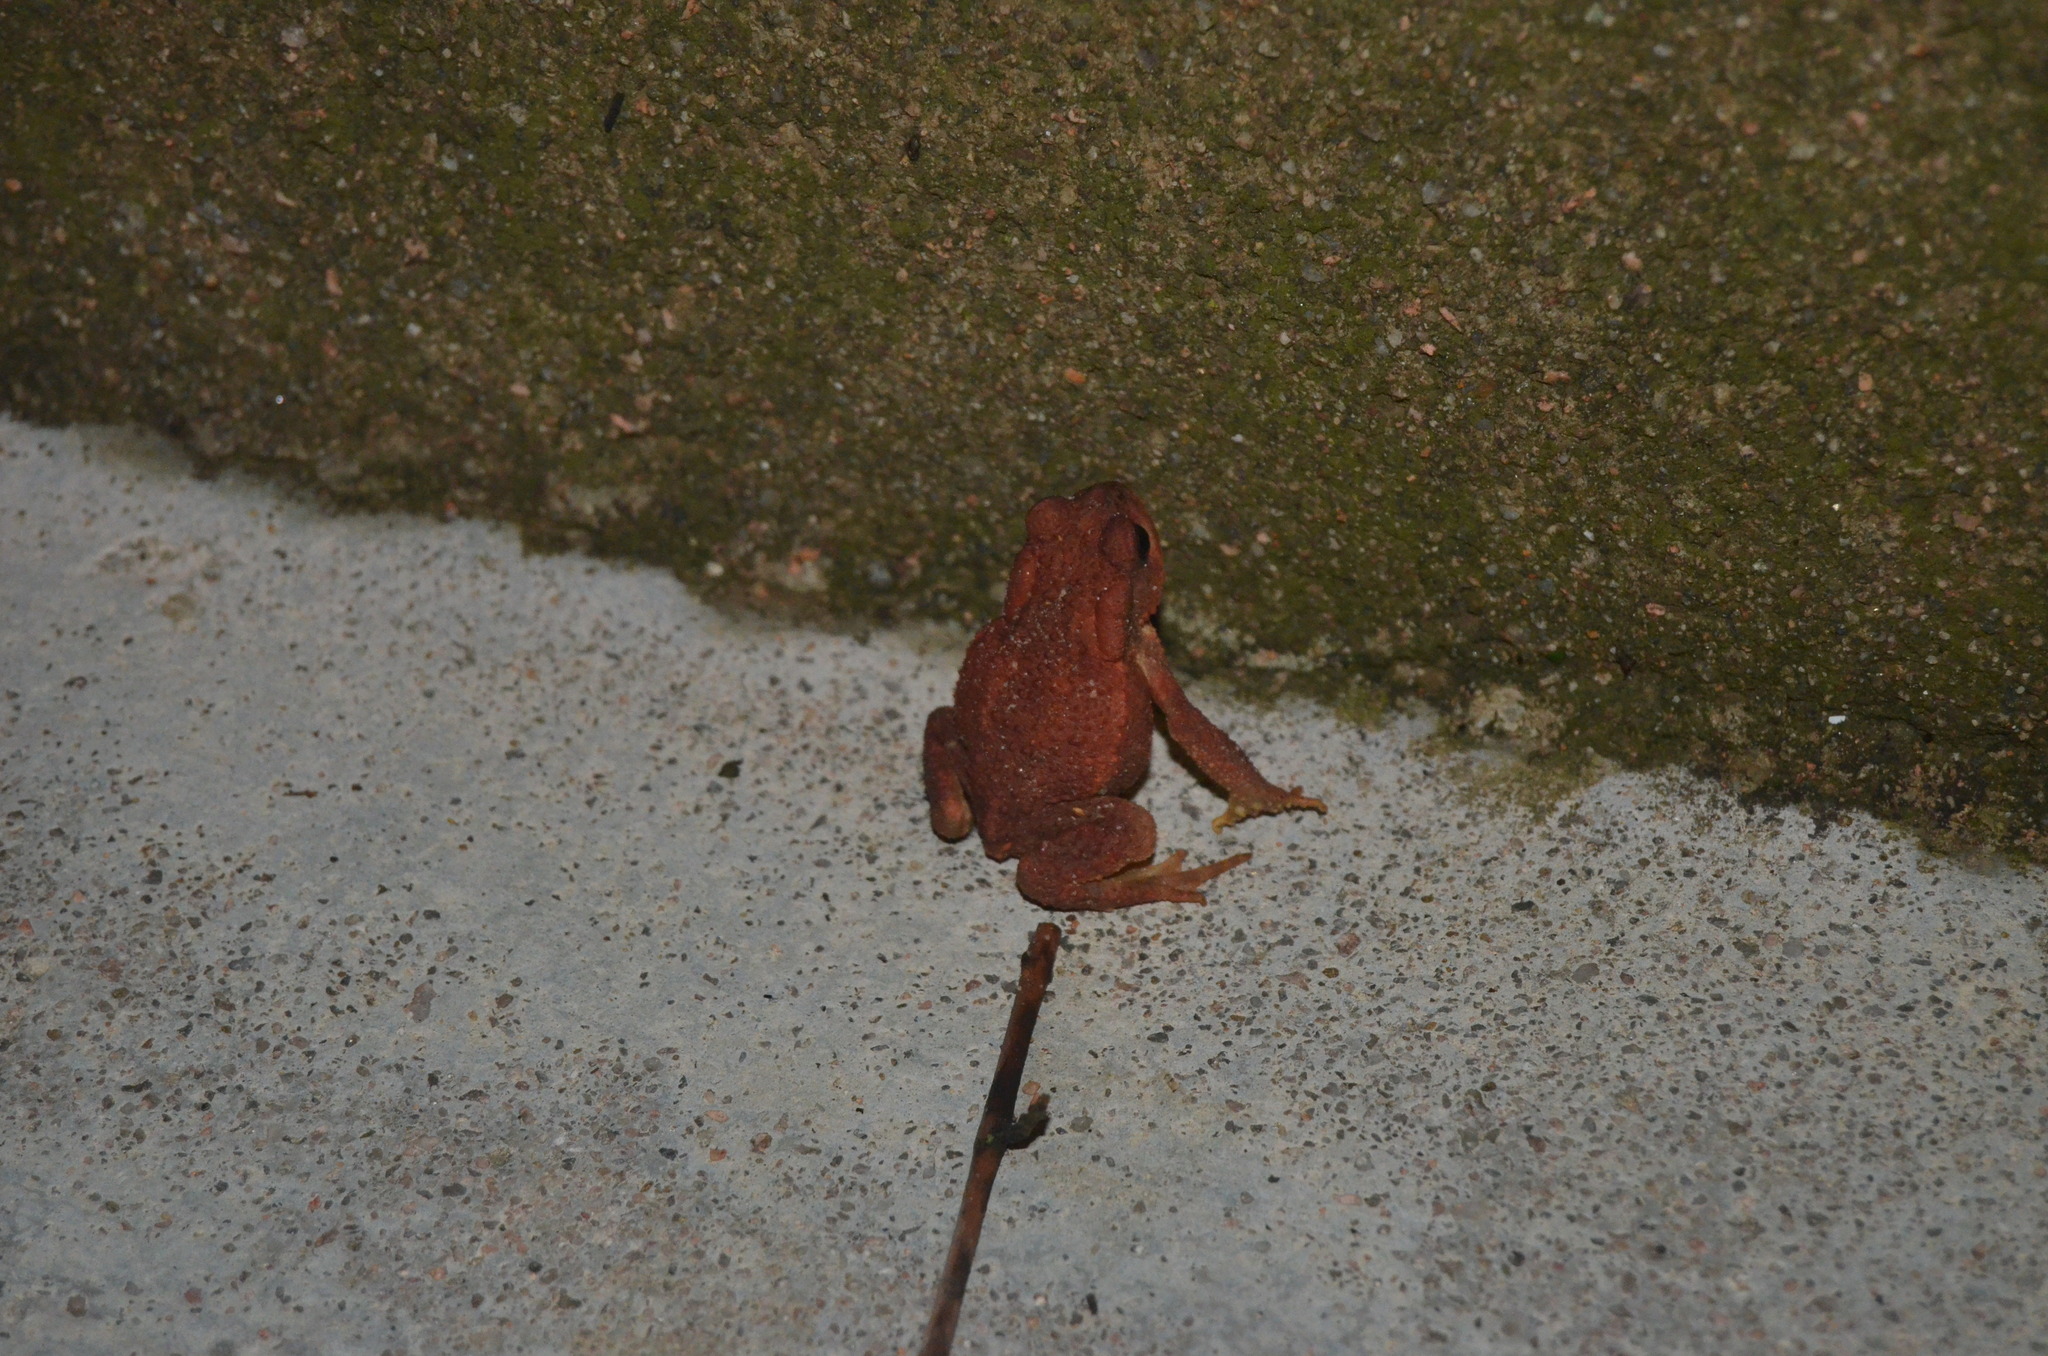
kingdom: Animalia
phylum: Chordata
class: Amphibia
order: Anura
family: Bufonidae
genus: Bufo
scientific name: Bufo spinosus
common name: Western common toad
